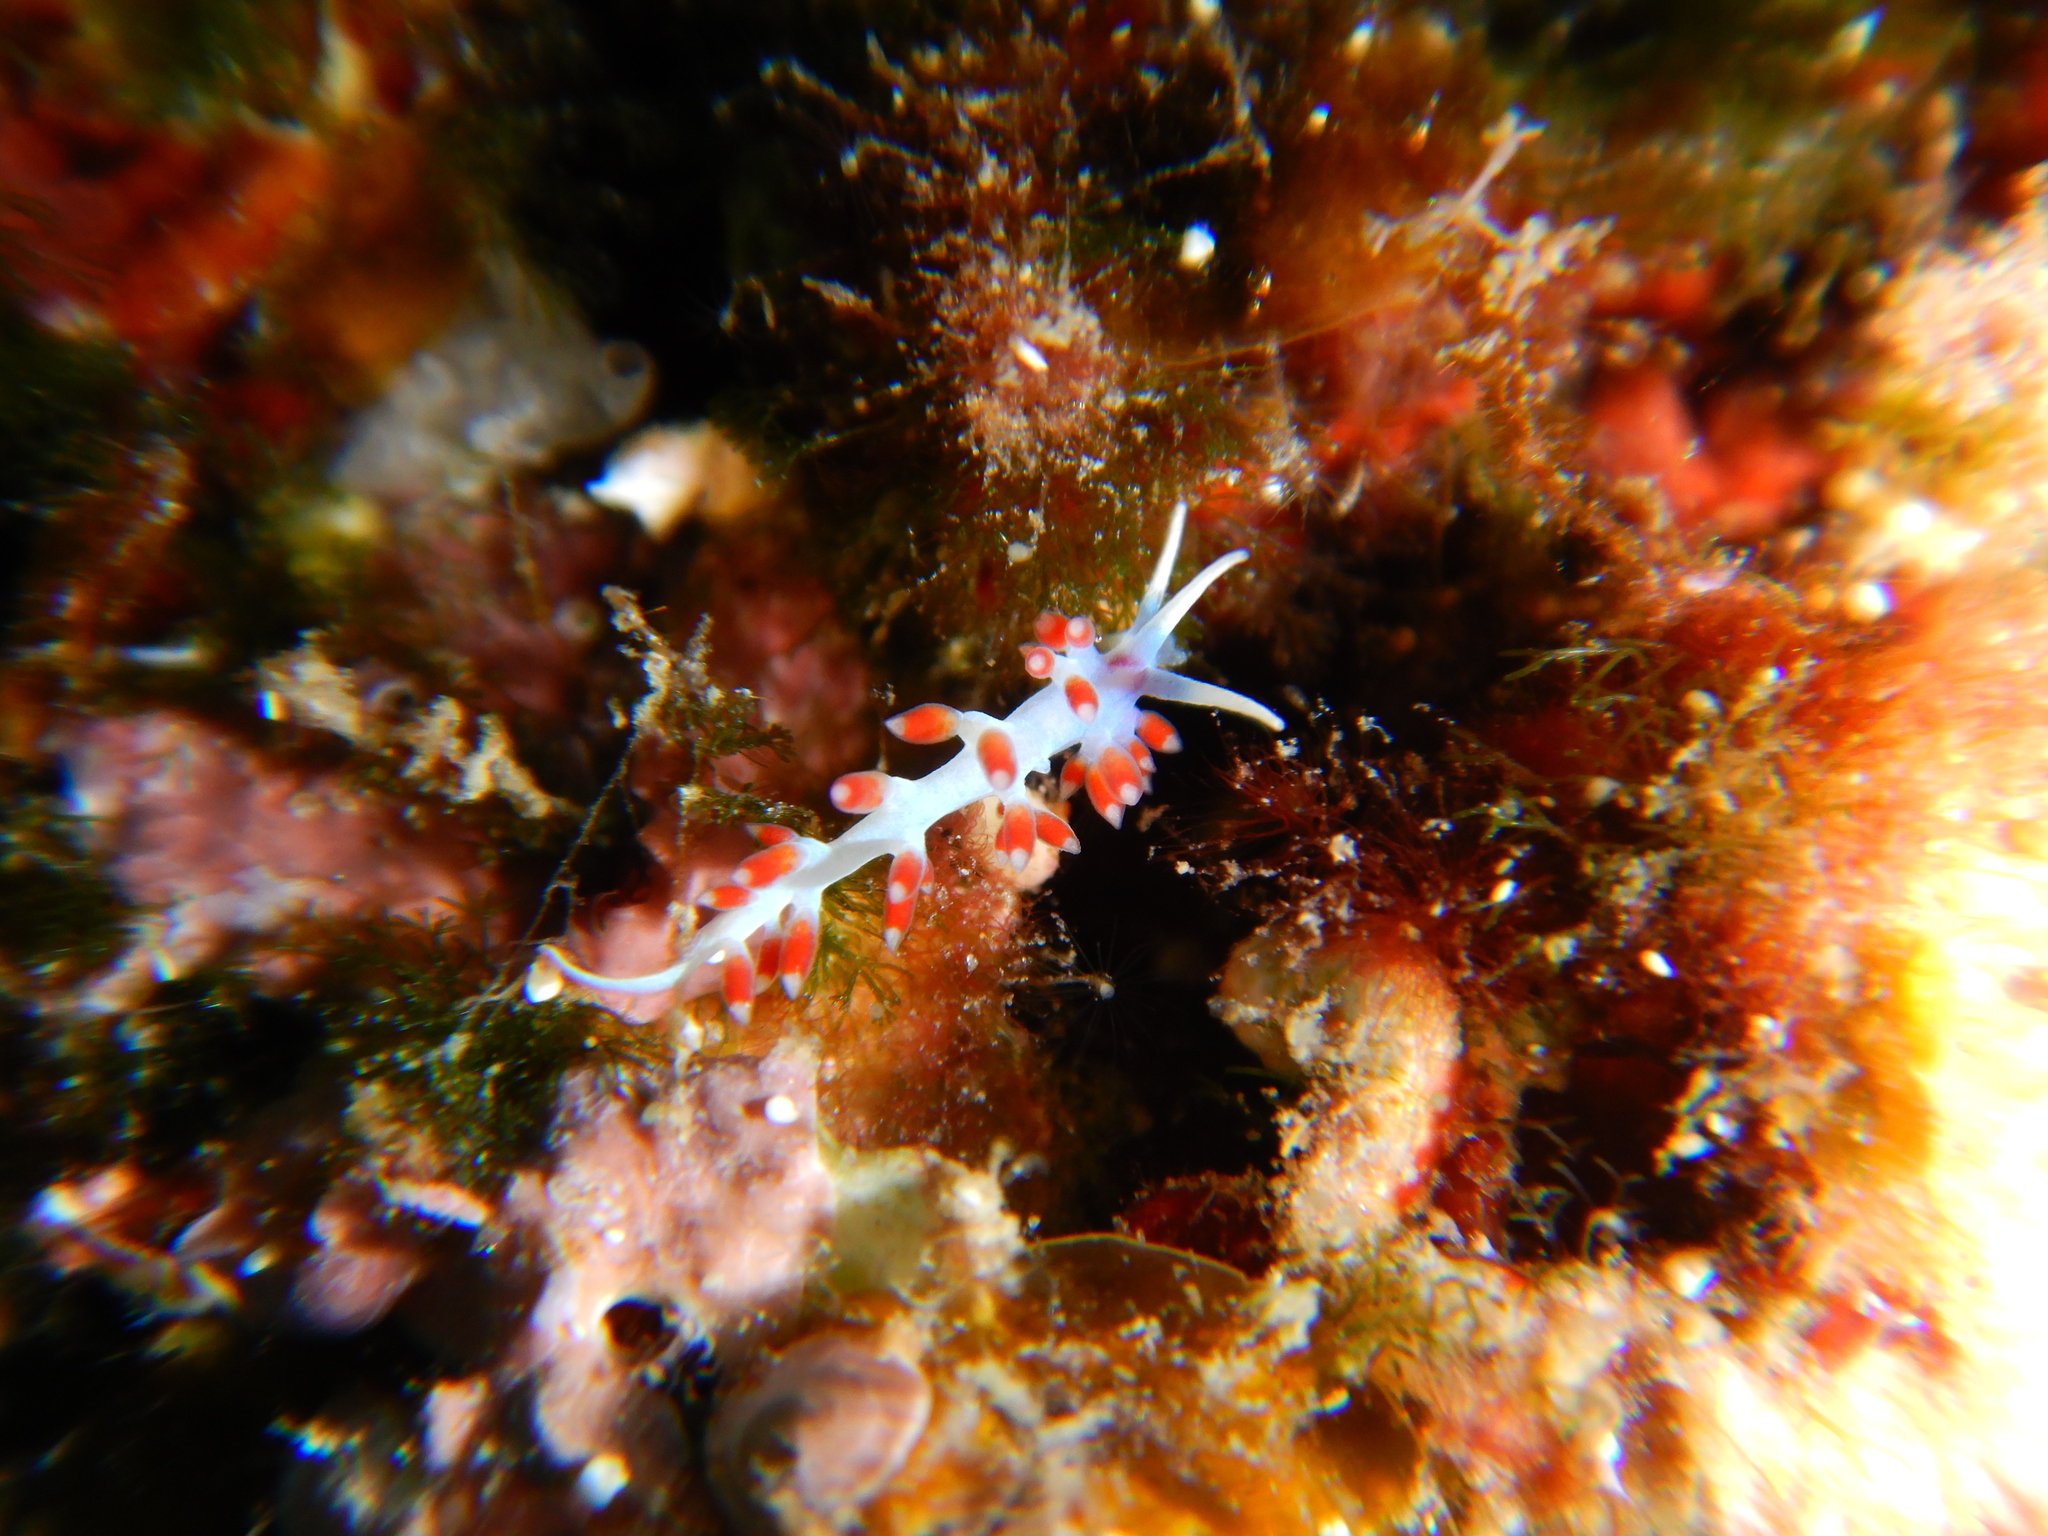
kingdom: Animalia
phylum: Mollusca
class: Gastropoda
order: Nudibranchia
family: Flabellinidae
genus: Calmella
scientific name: Calmella cavolini
